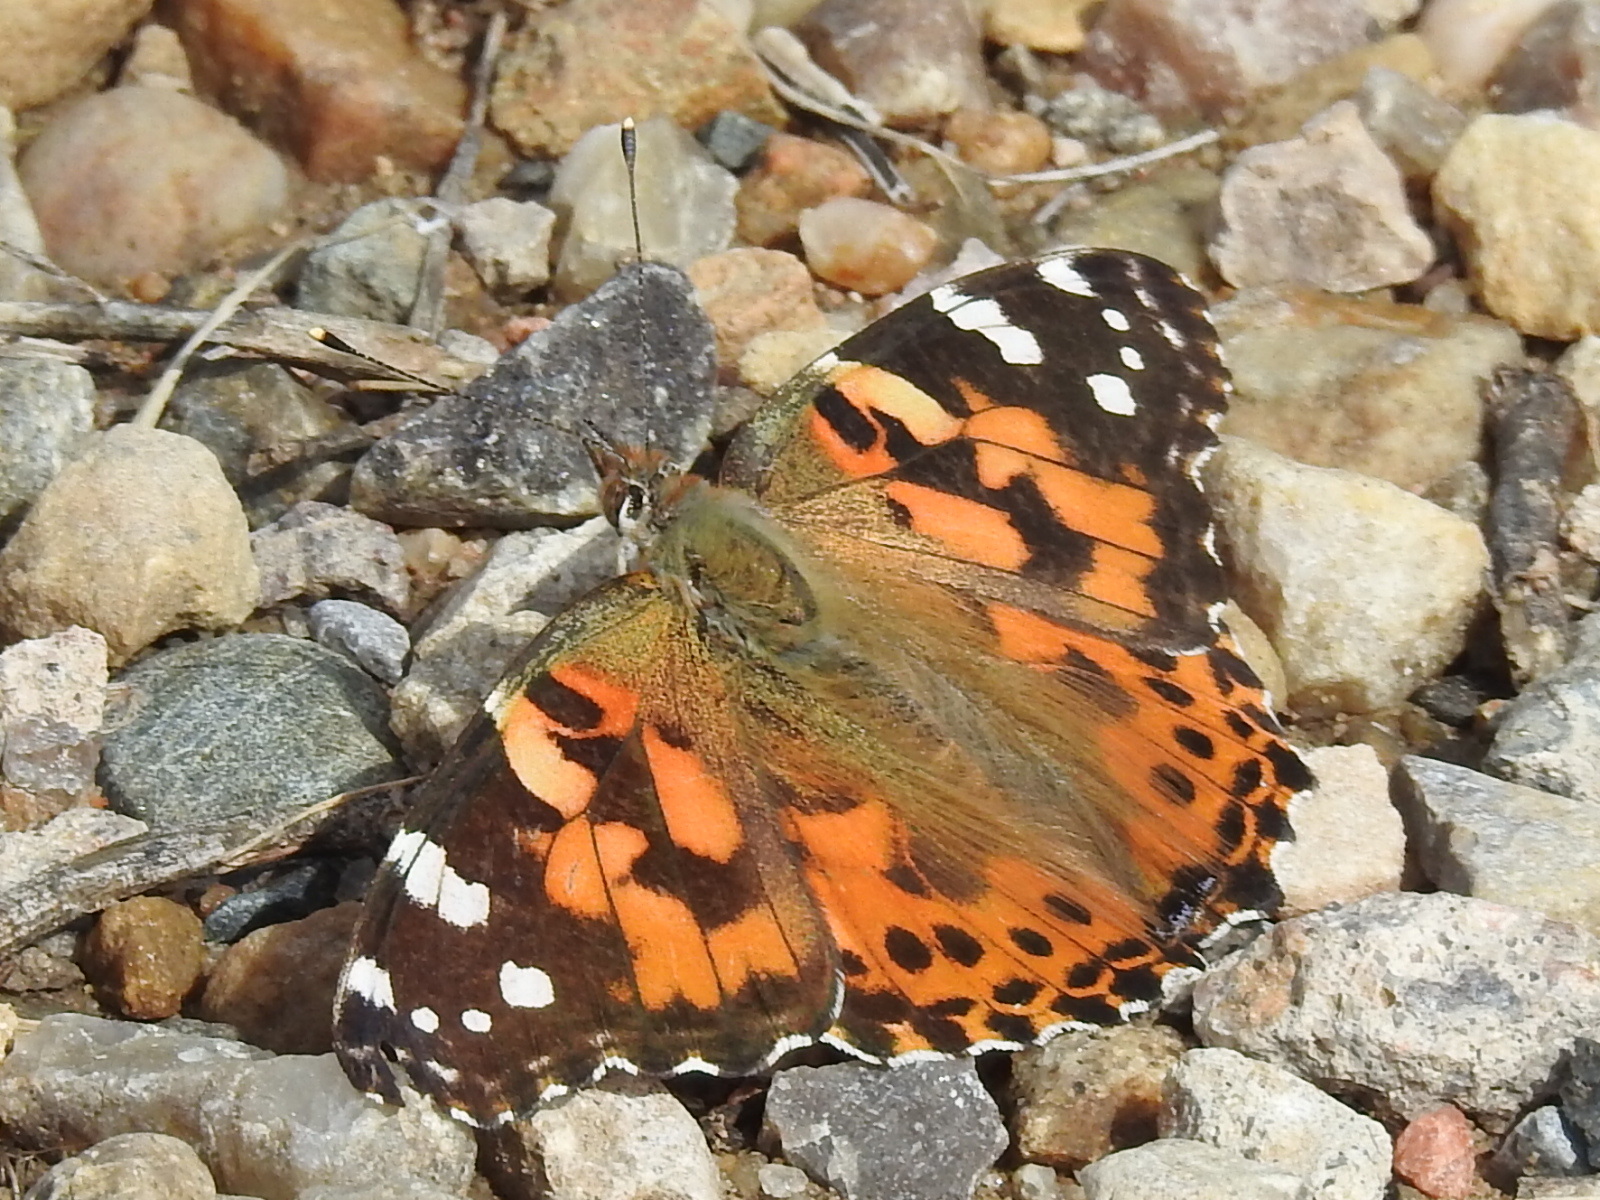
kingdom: Animalia
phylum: Arthropoda
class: Insecta
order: Lepidoptera
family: Nymphalidae
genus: Vanessa
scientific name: Vanessa cardui
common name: Painted lady
